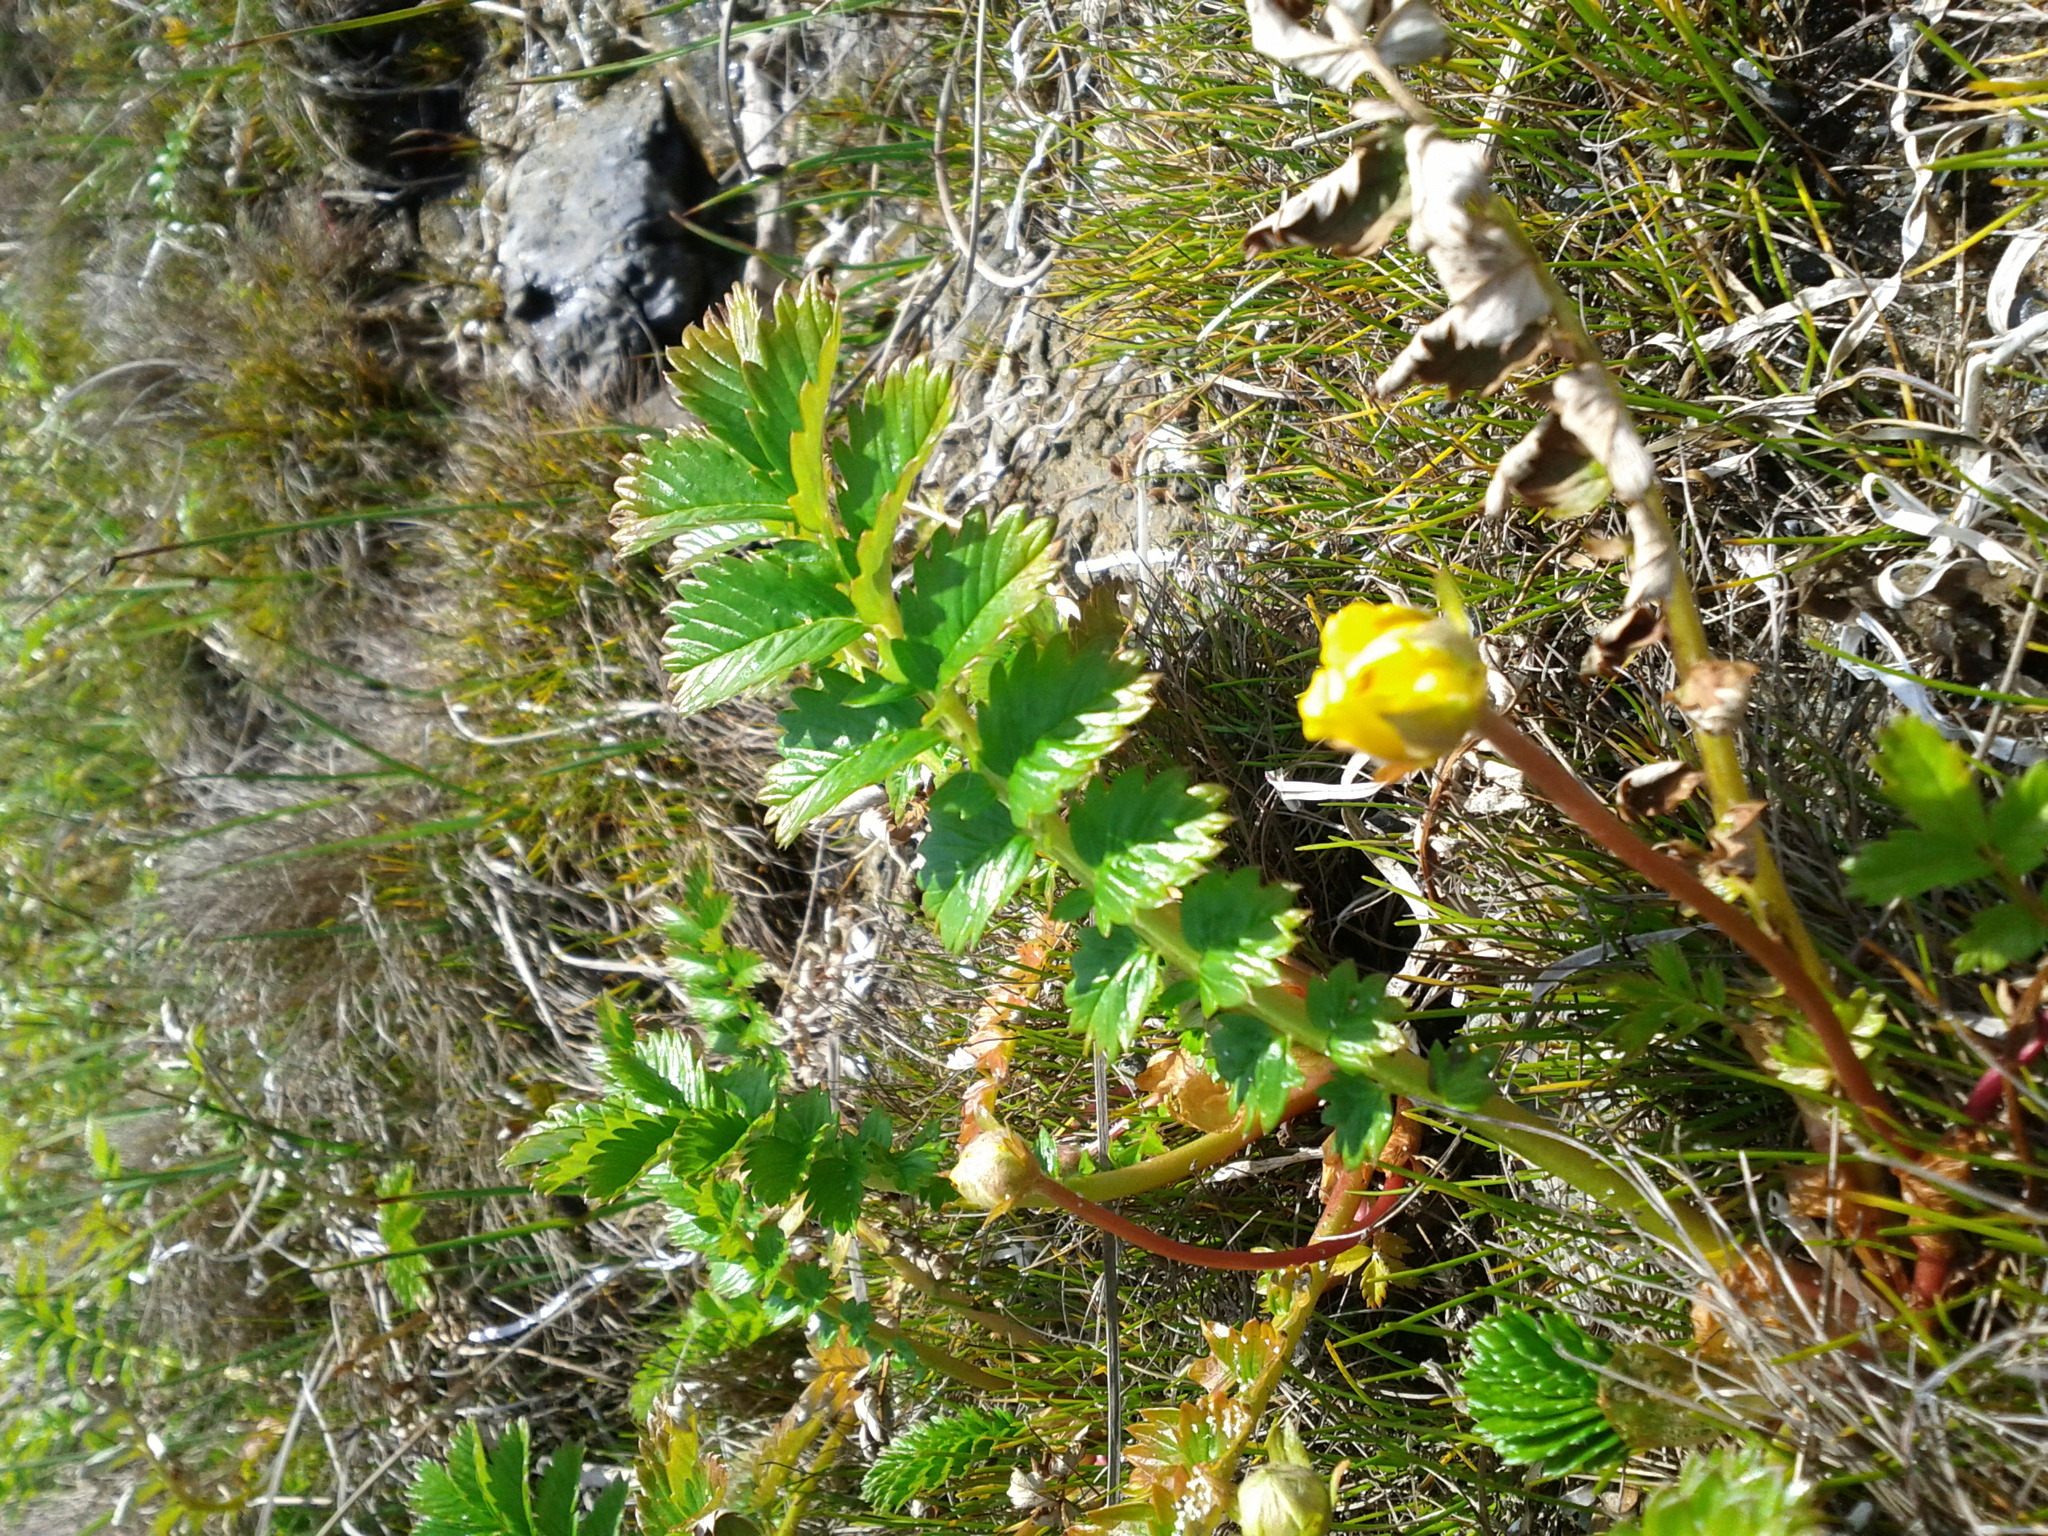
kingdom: Plantae
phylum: Tracheophyta
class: Magnoliopsida
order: Rosales
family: Rosaceae
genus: Argentina
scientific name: Argentina anserina
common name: Common silverweed
